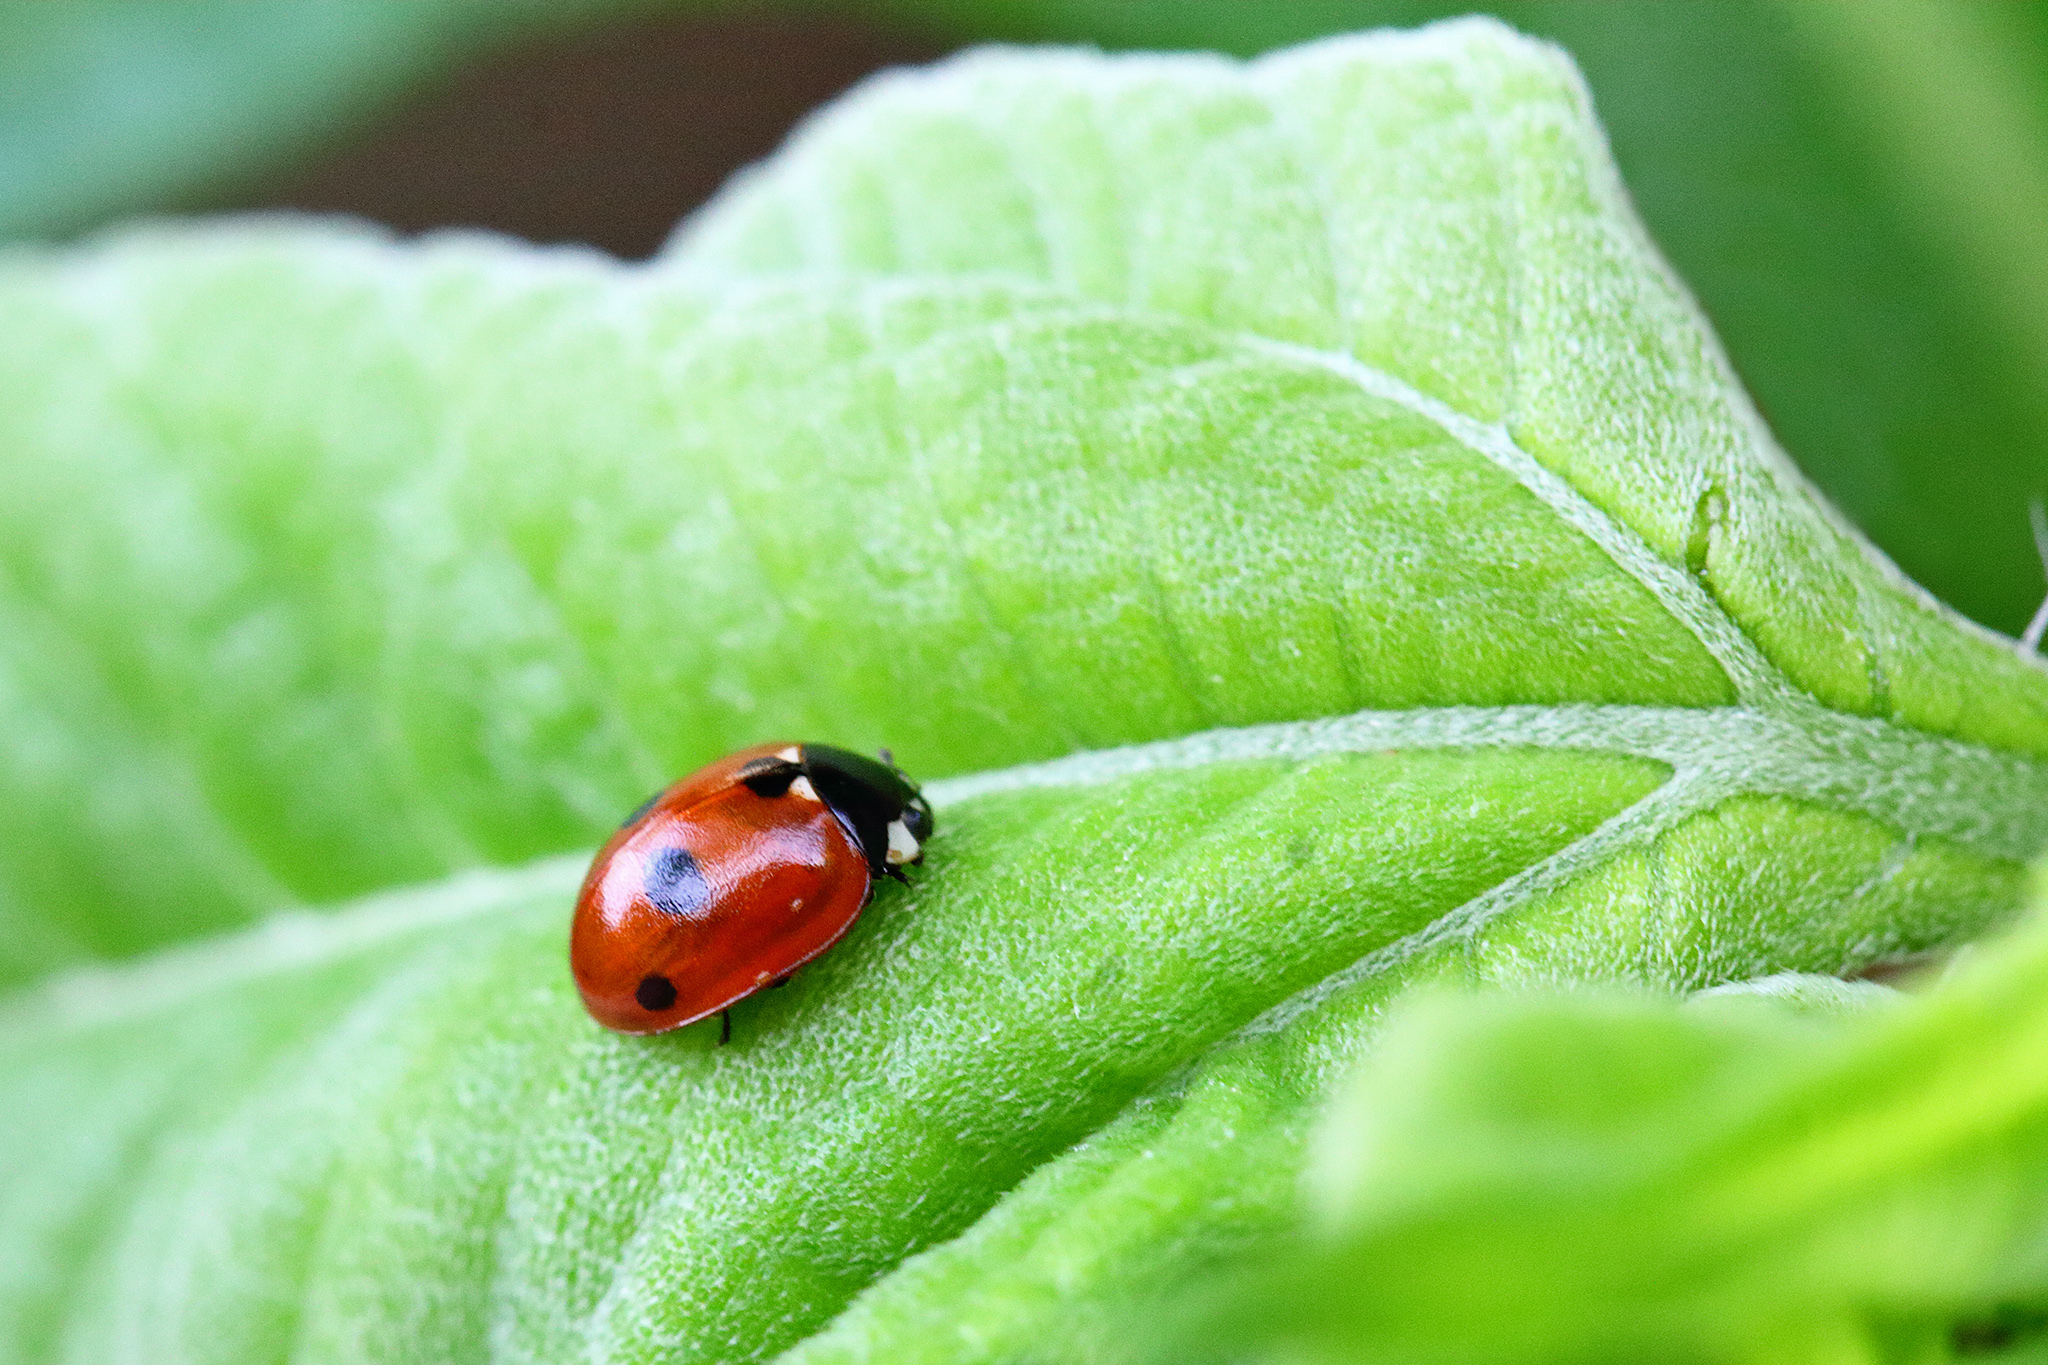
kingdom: Animalia
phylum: Arthropoda
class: Insecta
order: Coleoptera
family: Coccinellidae
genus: Coccinella
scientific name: Coccinella quinquepunctata
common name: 5-spot ladybird
